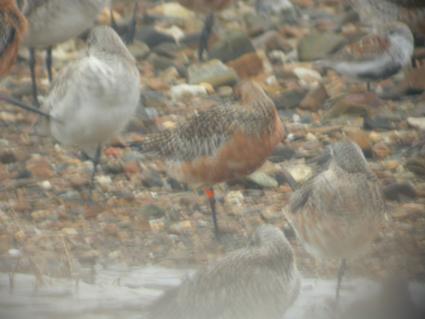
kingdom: Animalia
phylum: Chordata
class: Aves
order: Charadriiformes
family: Scolopacidae
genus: Limosa
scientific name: Limosa lapponica
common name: Bar-tailed godwit
